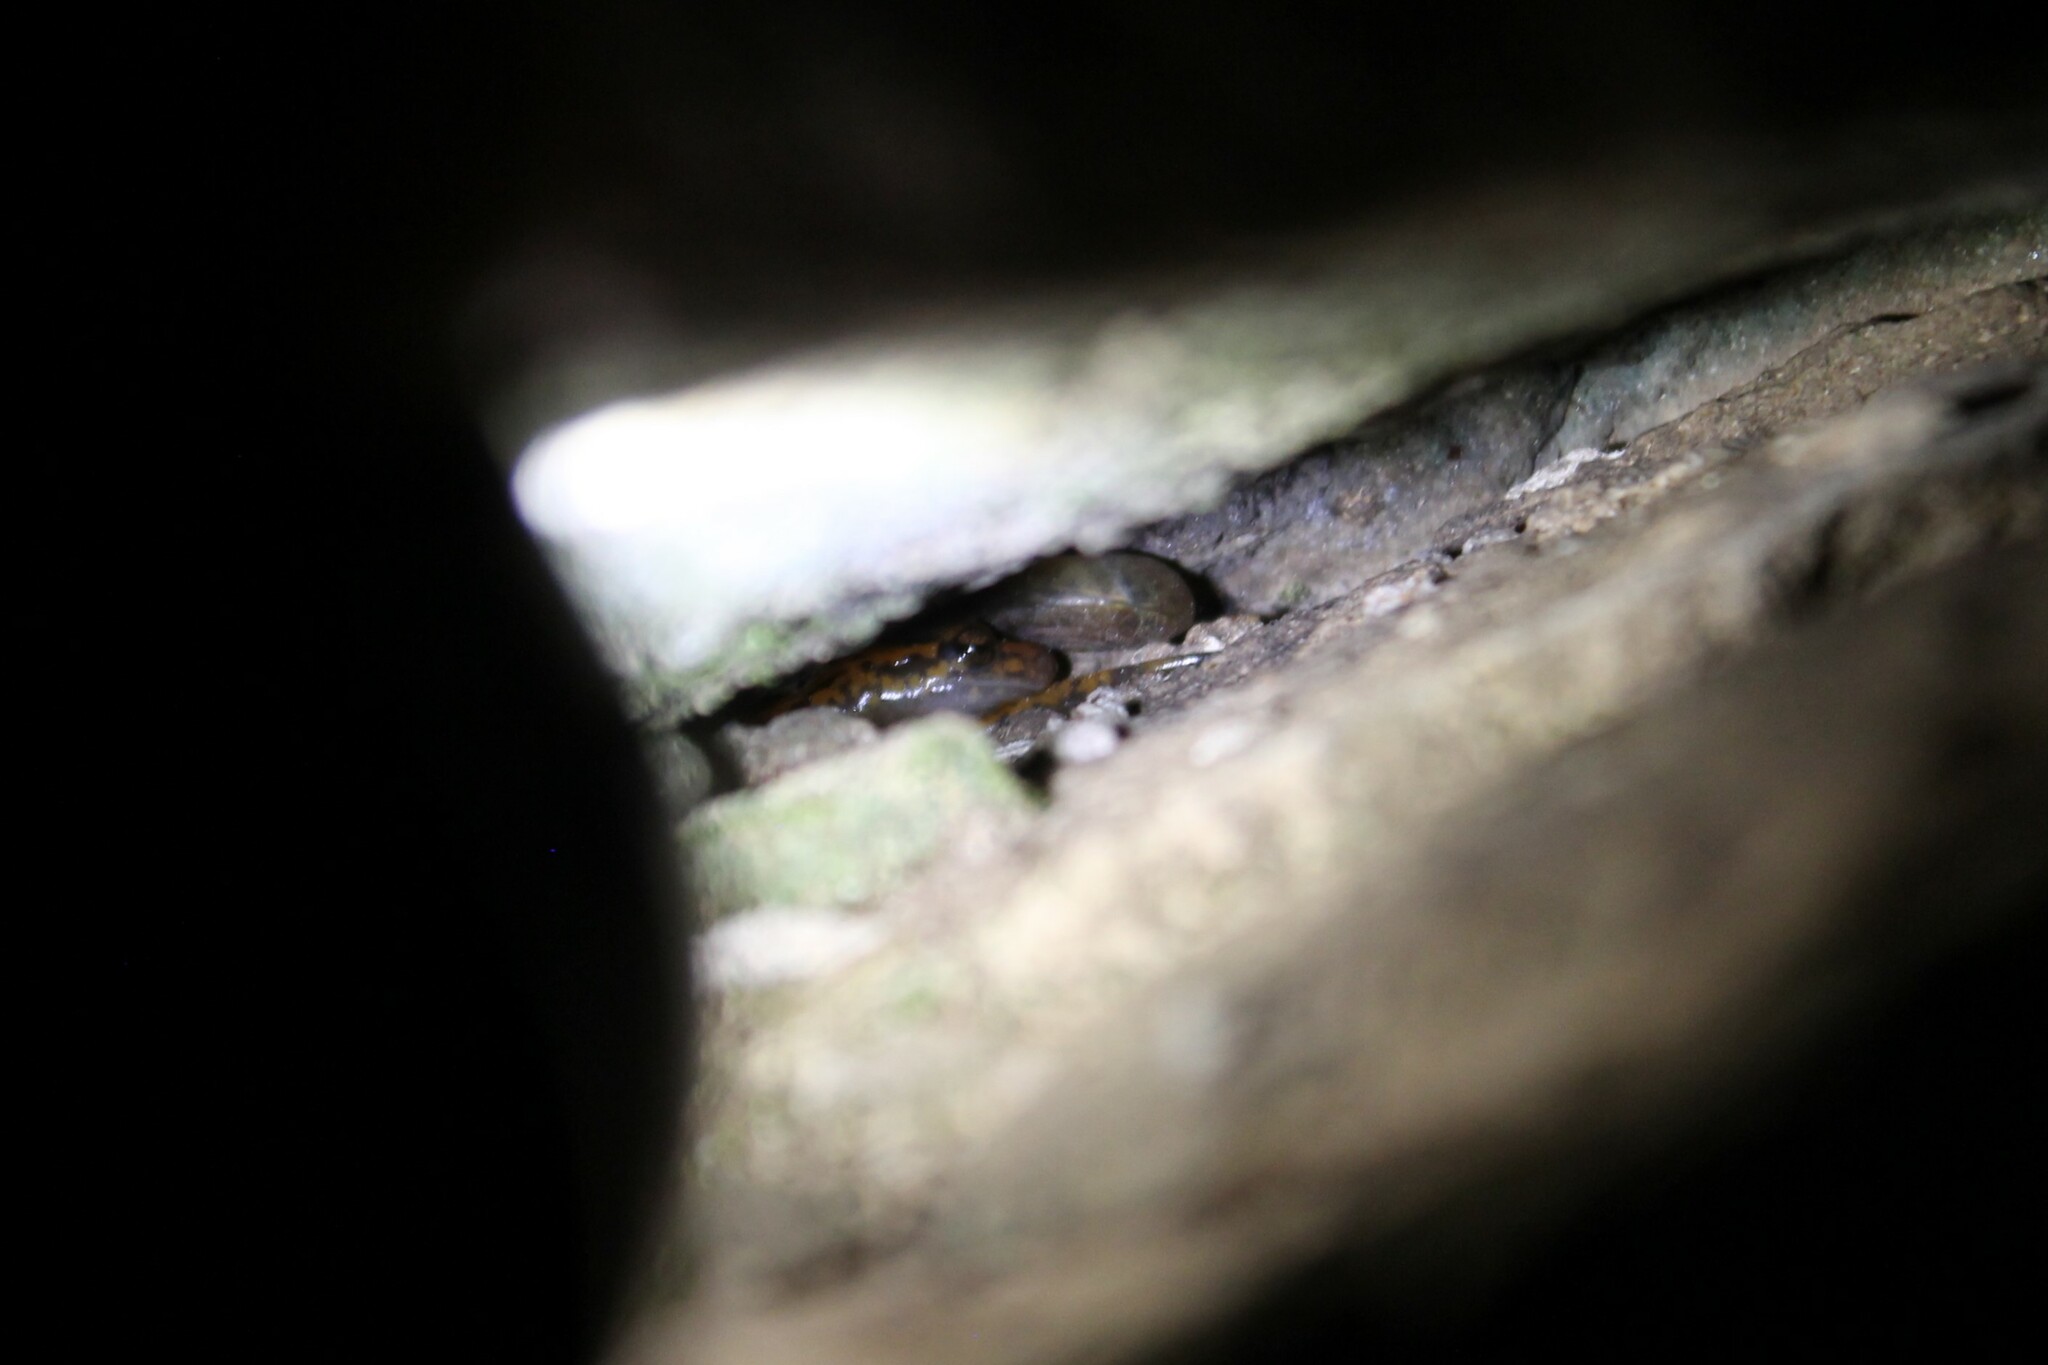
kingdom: Animalia
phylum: Chordata
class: Amphibia
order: Caudata
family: Plethodontidae
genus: Eurycea
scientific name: Eurycea lucifuga
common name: Cave salamander
